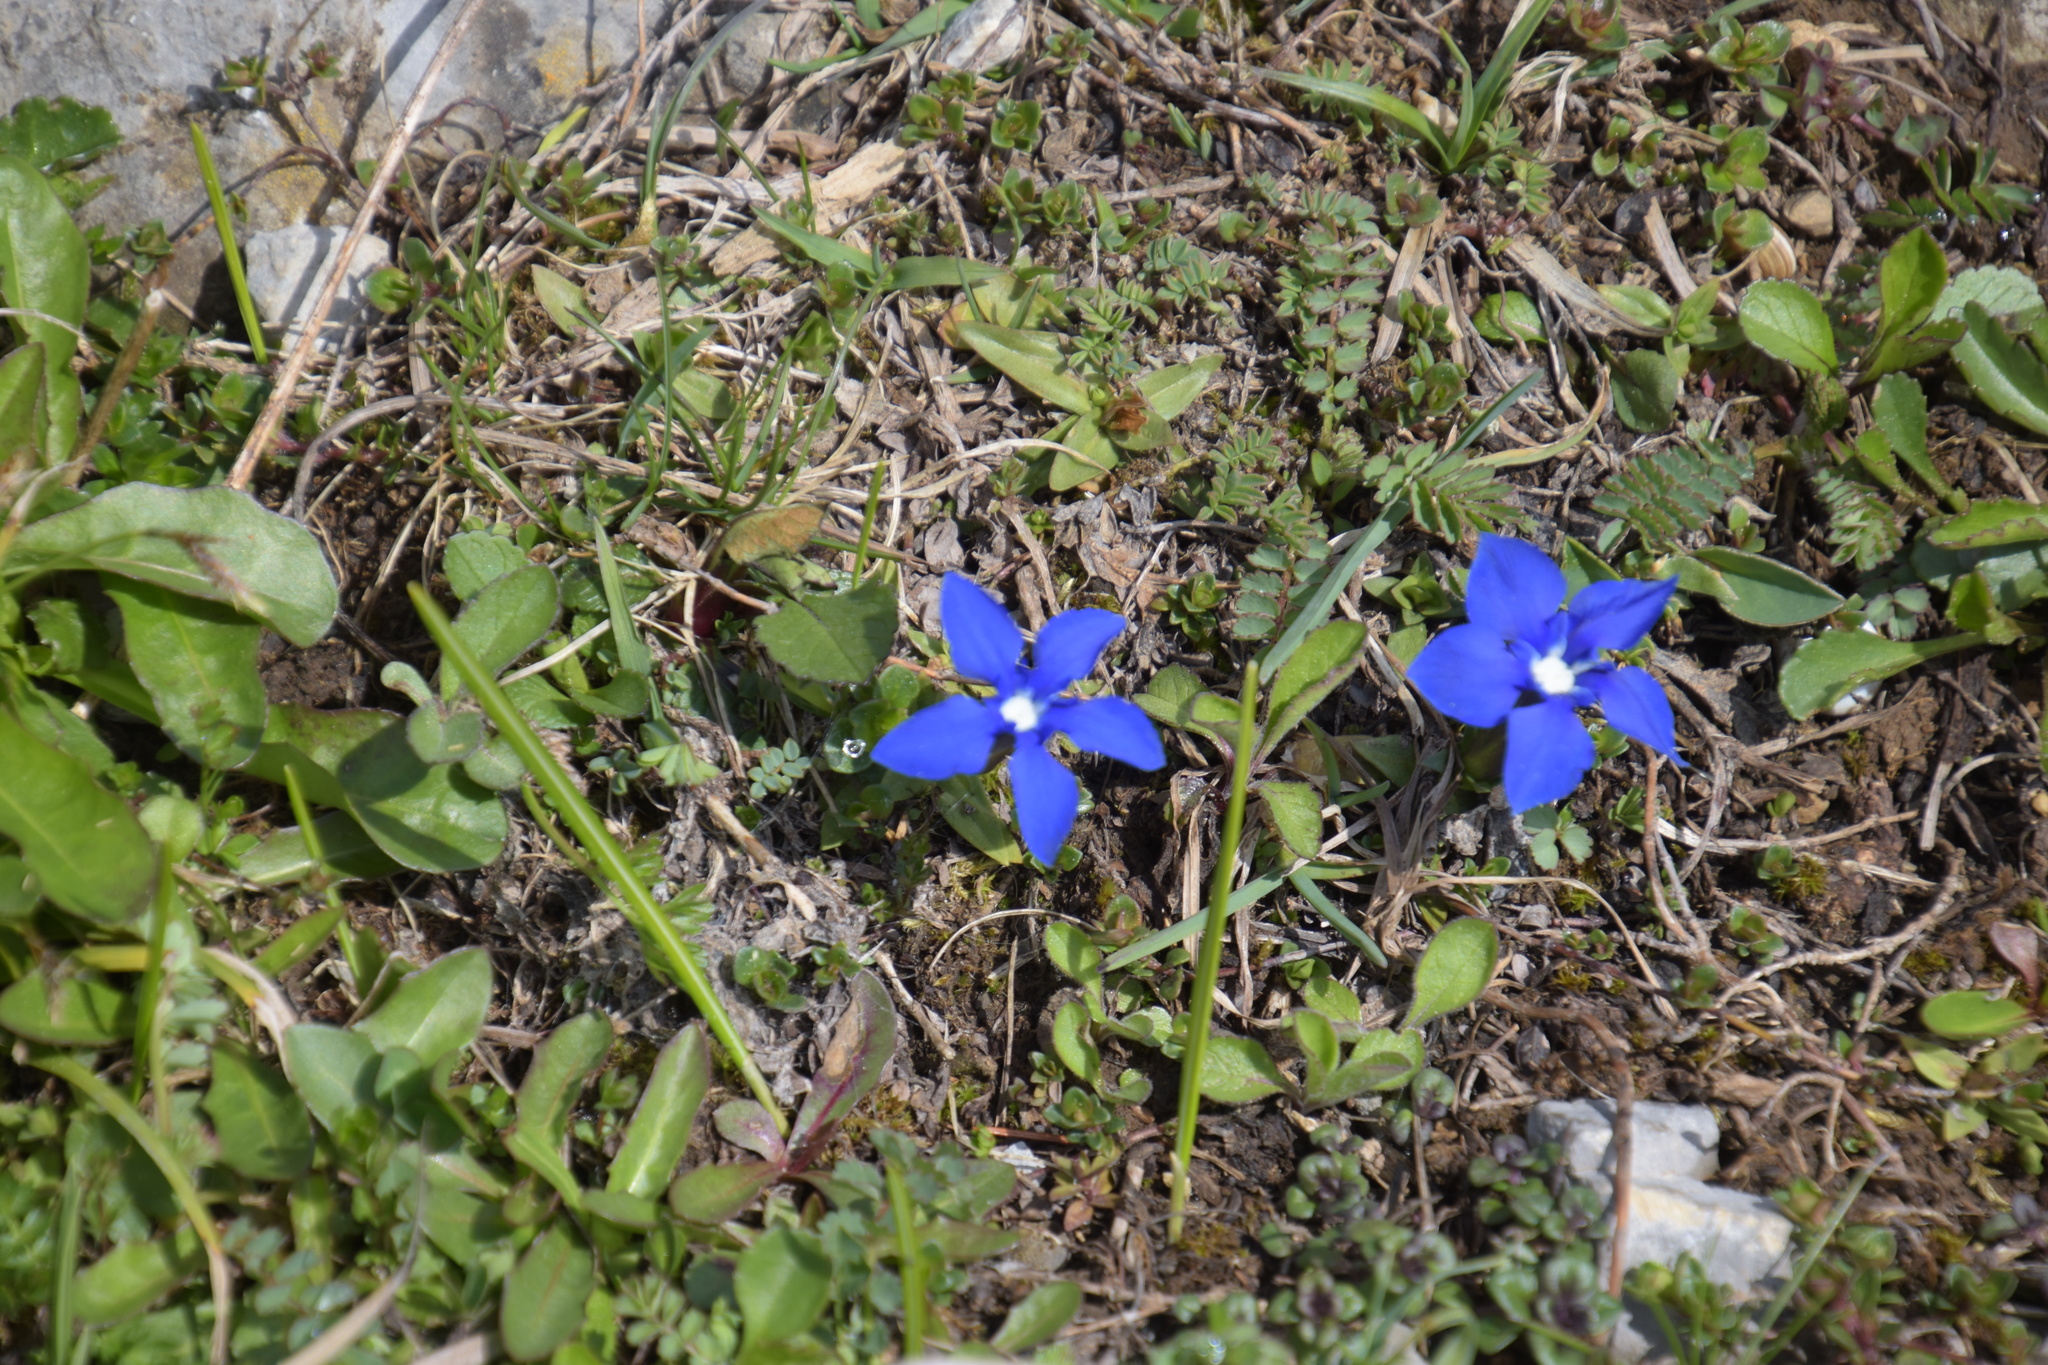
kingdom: Plantae
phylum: Tracheophyta
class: Magnoliopsida
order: Gentianales
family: Gentianaceae
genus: Gentiana
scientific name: Gentiana verna
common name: Spring gentian
